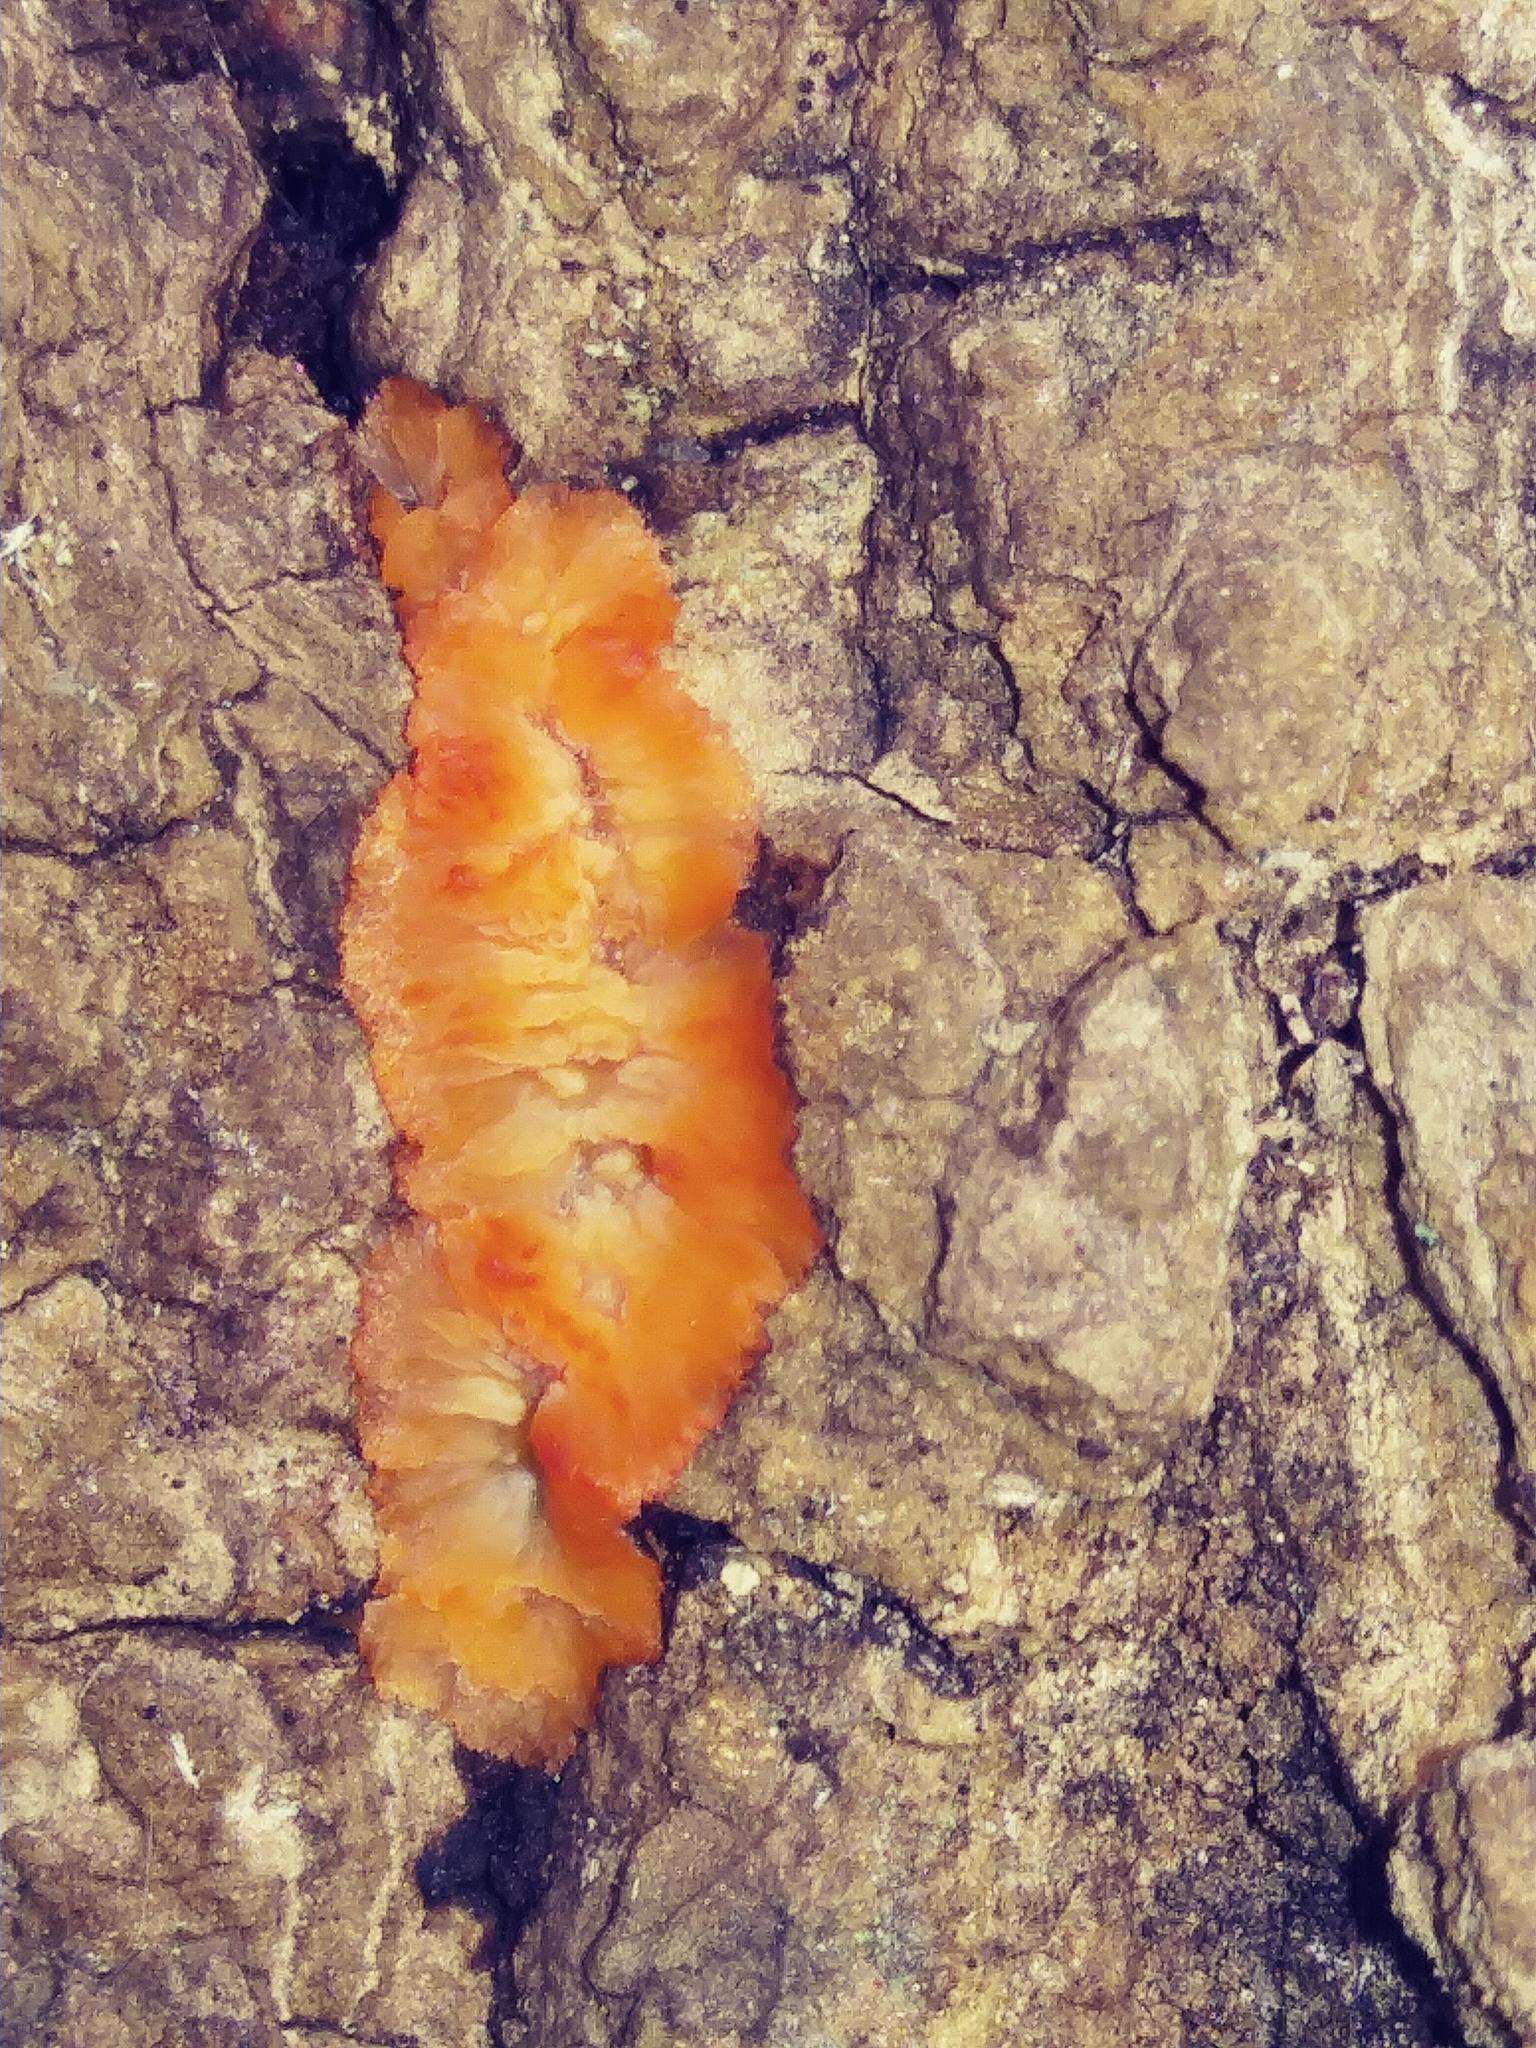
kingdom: Fungi
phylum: Basidiomycota
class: Agaricomycetes
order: Polyporales
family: Meruliaceae
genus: Phlebia
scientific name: Phlebia radiata
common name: Wrinkled crust
